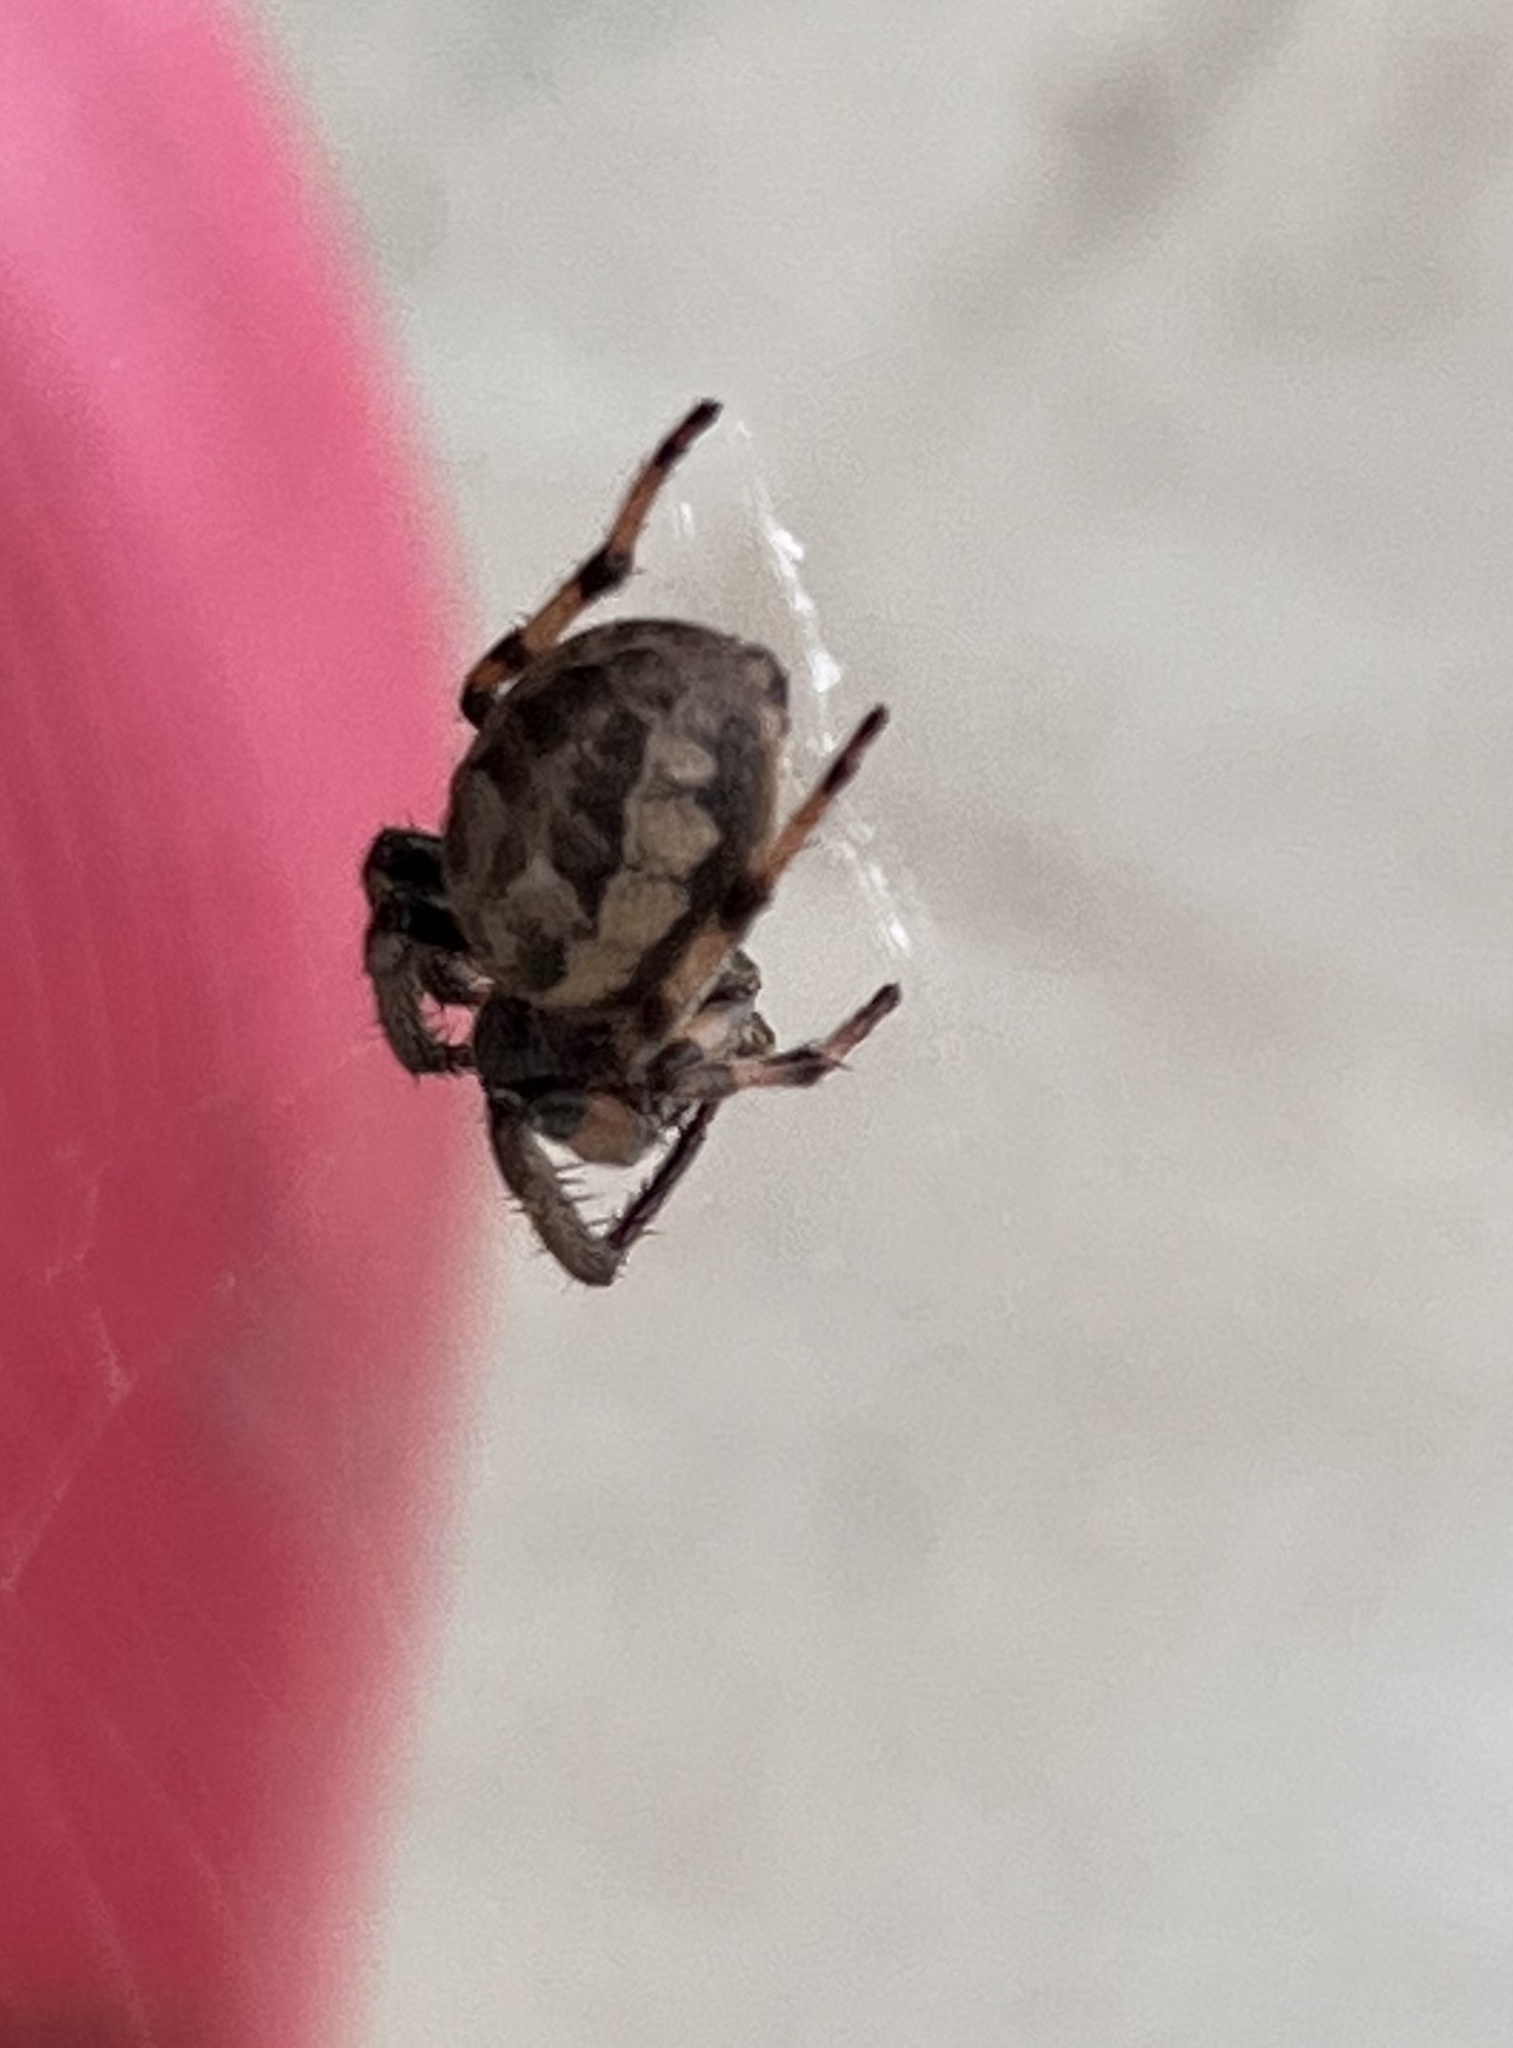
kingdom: Animalia
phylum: Arthropoda
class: Arachnida
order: Araneae
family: Araneidae
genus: Larinioides
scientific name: Larinioides cornutus
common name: Furrow orbweaver
